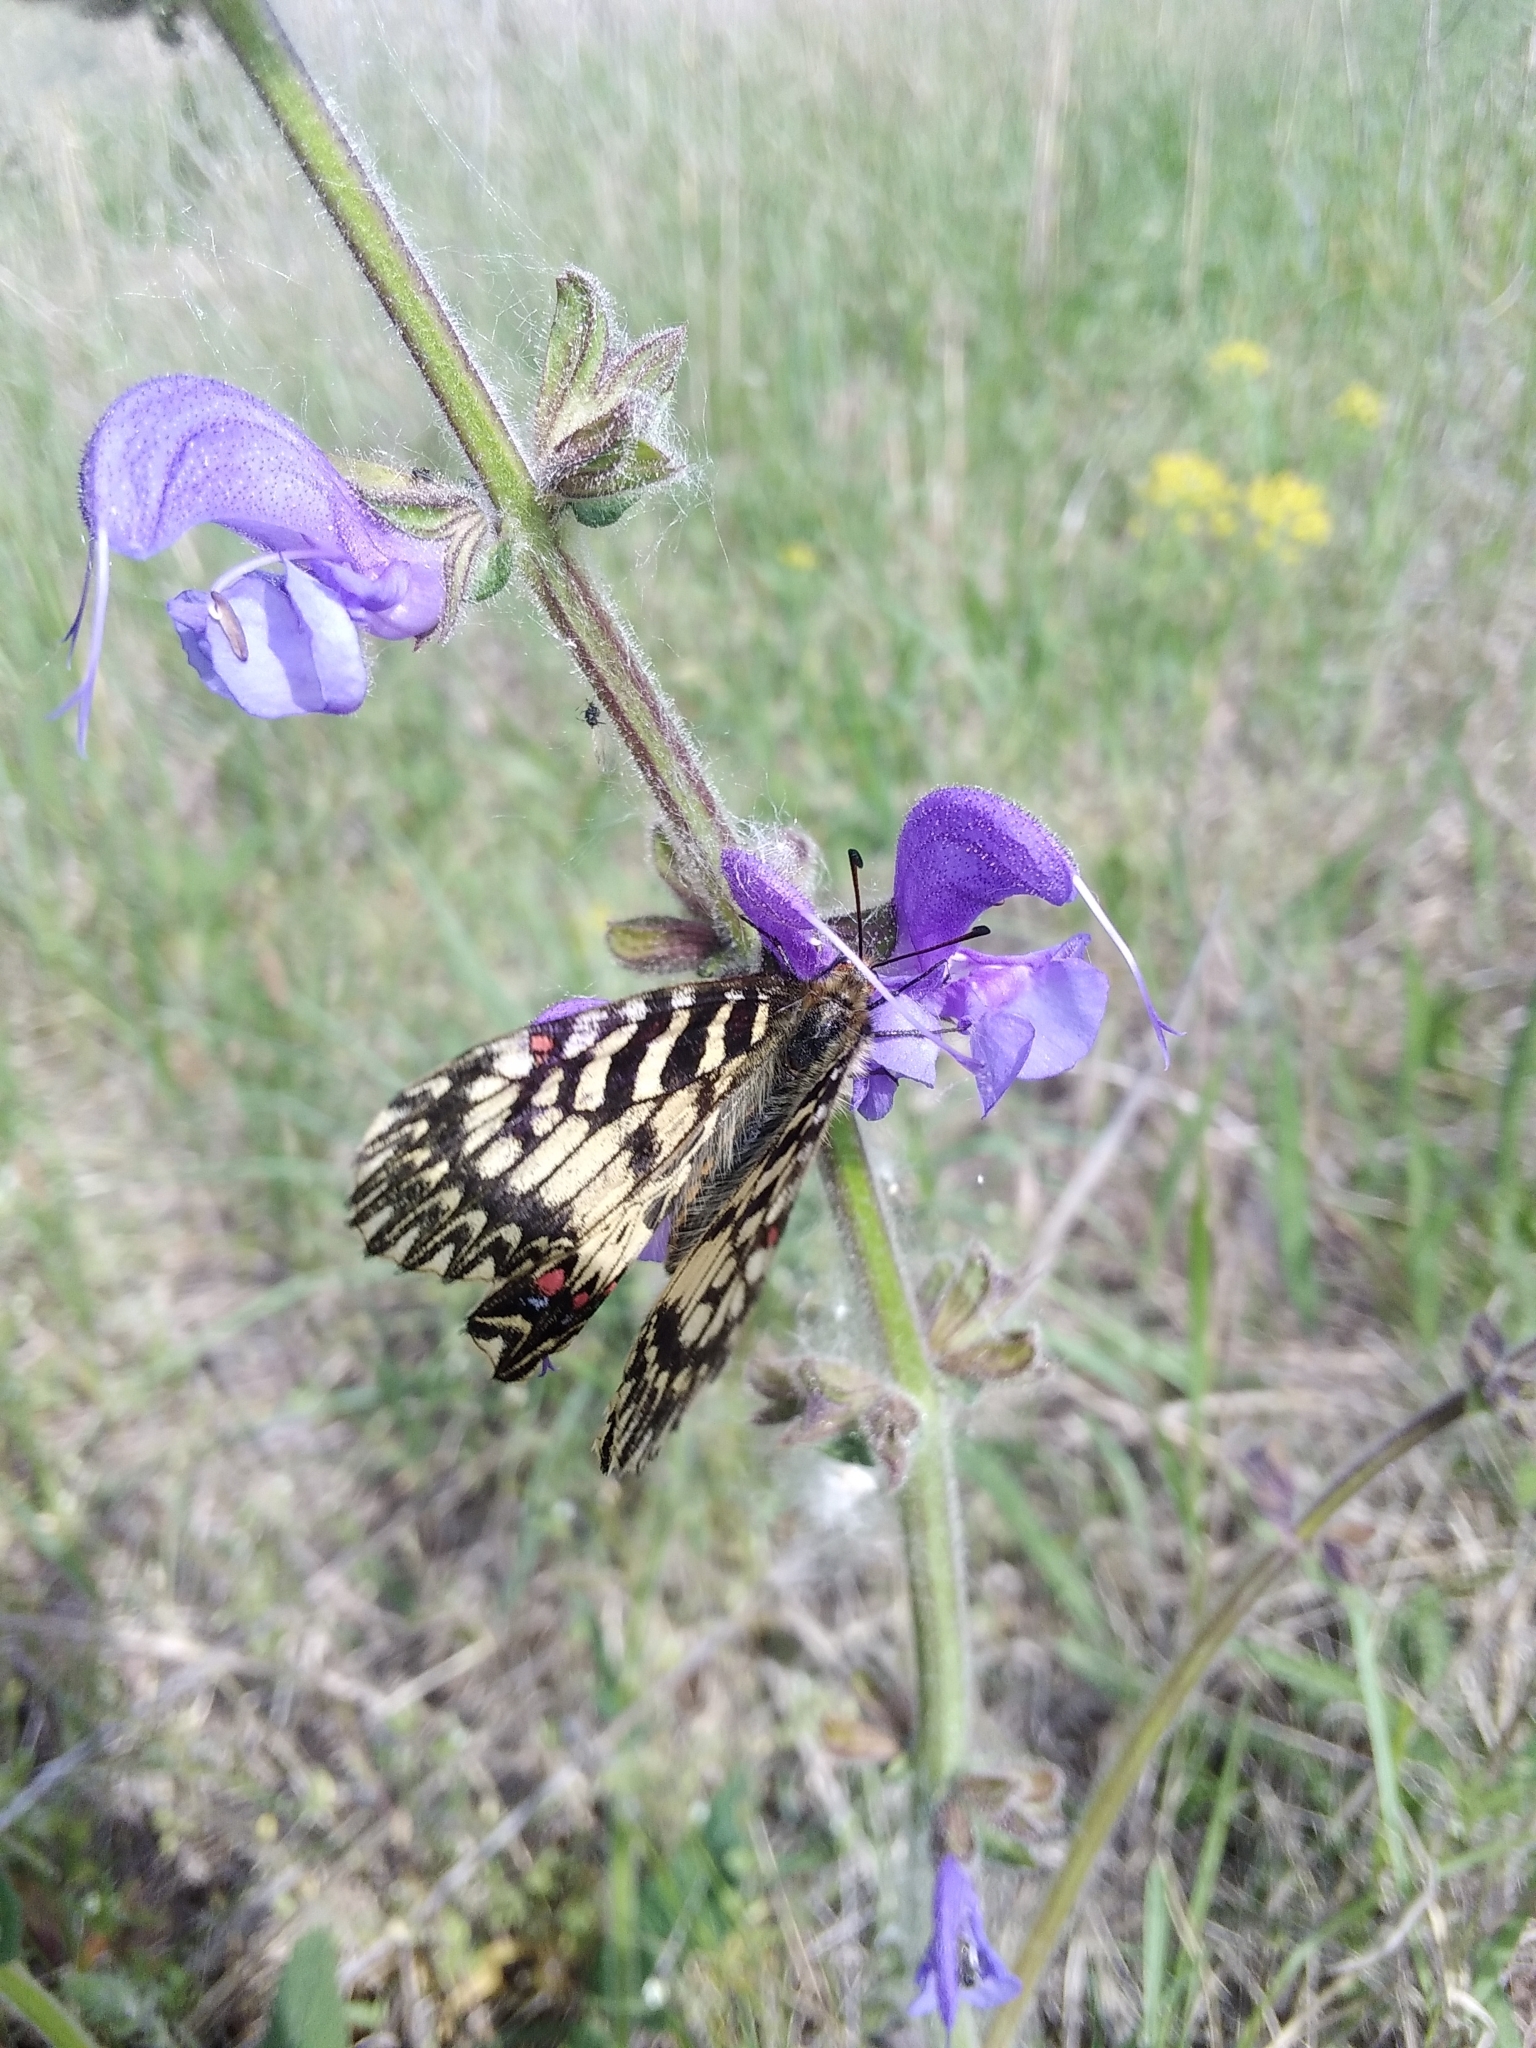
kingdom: Animalia
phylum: Arthropoda
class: Insecta
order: Lepidoptera
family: Papilionidae
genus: Zerynthia
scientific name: Zerynthia polyxena
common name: Southern festoon
